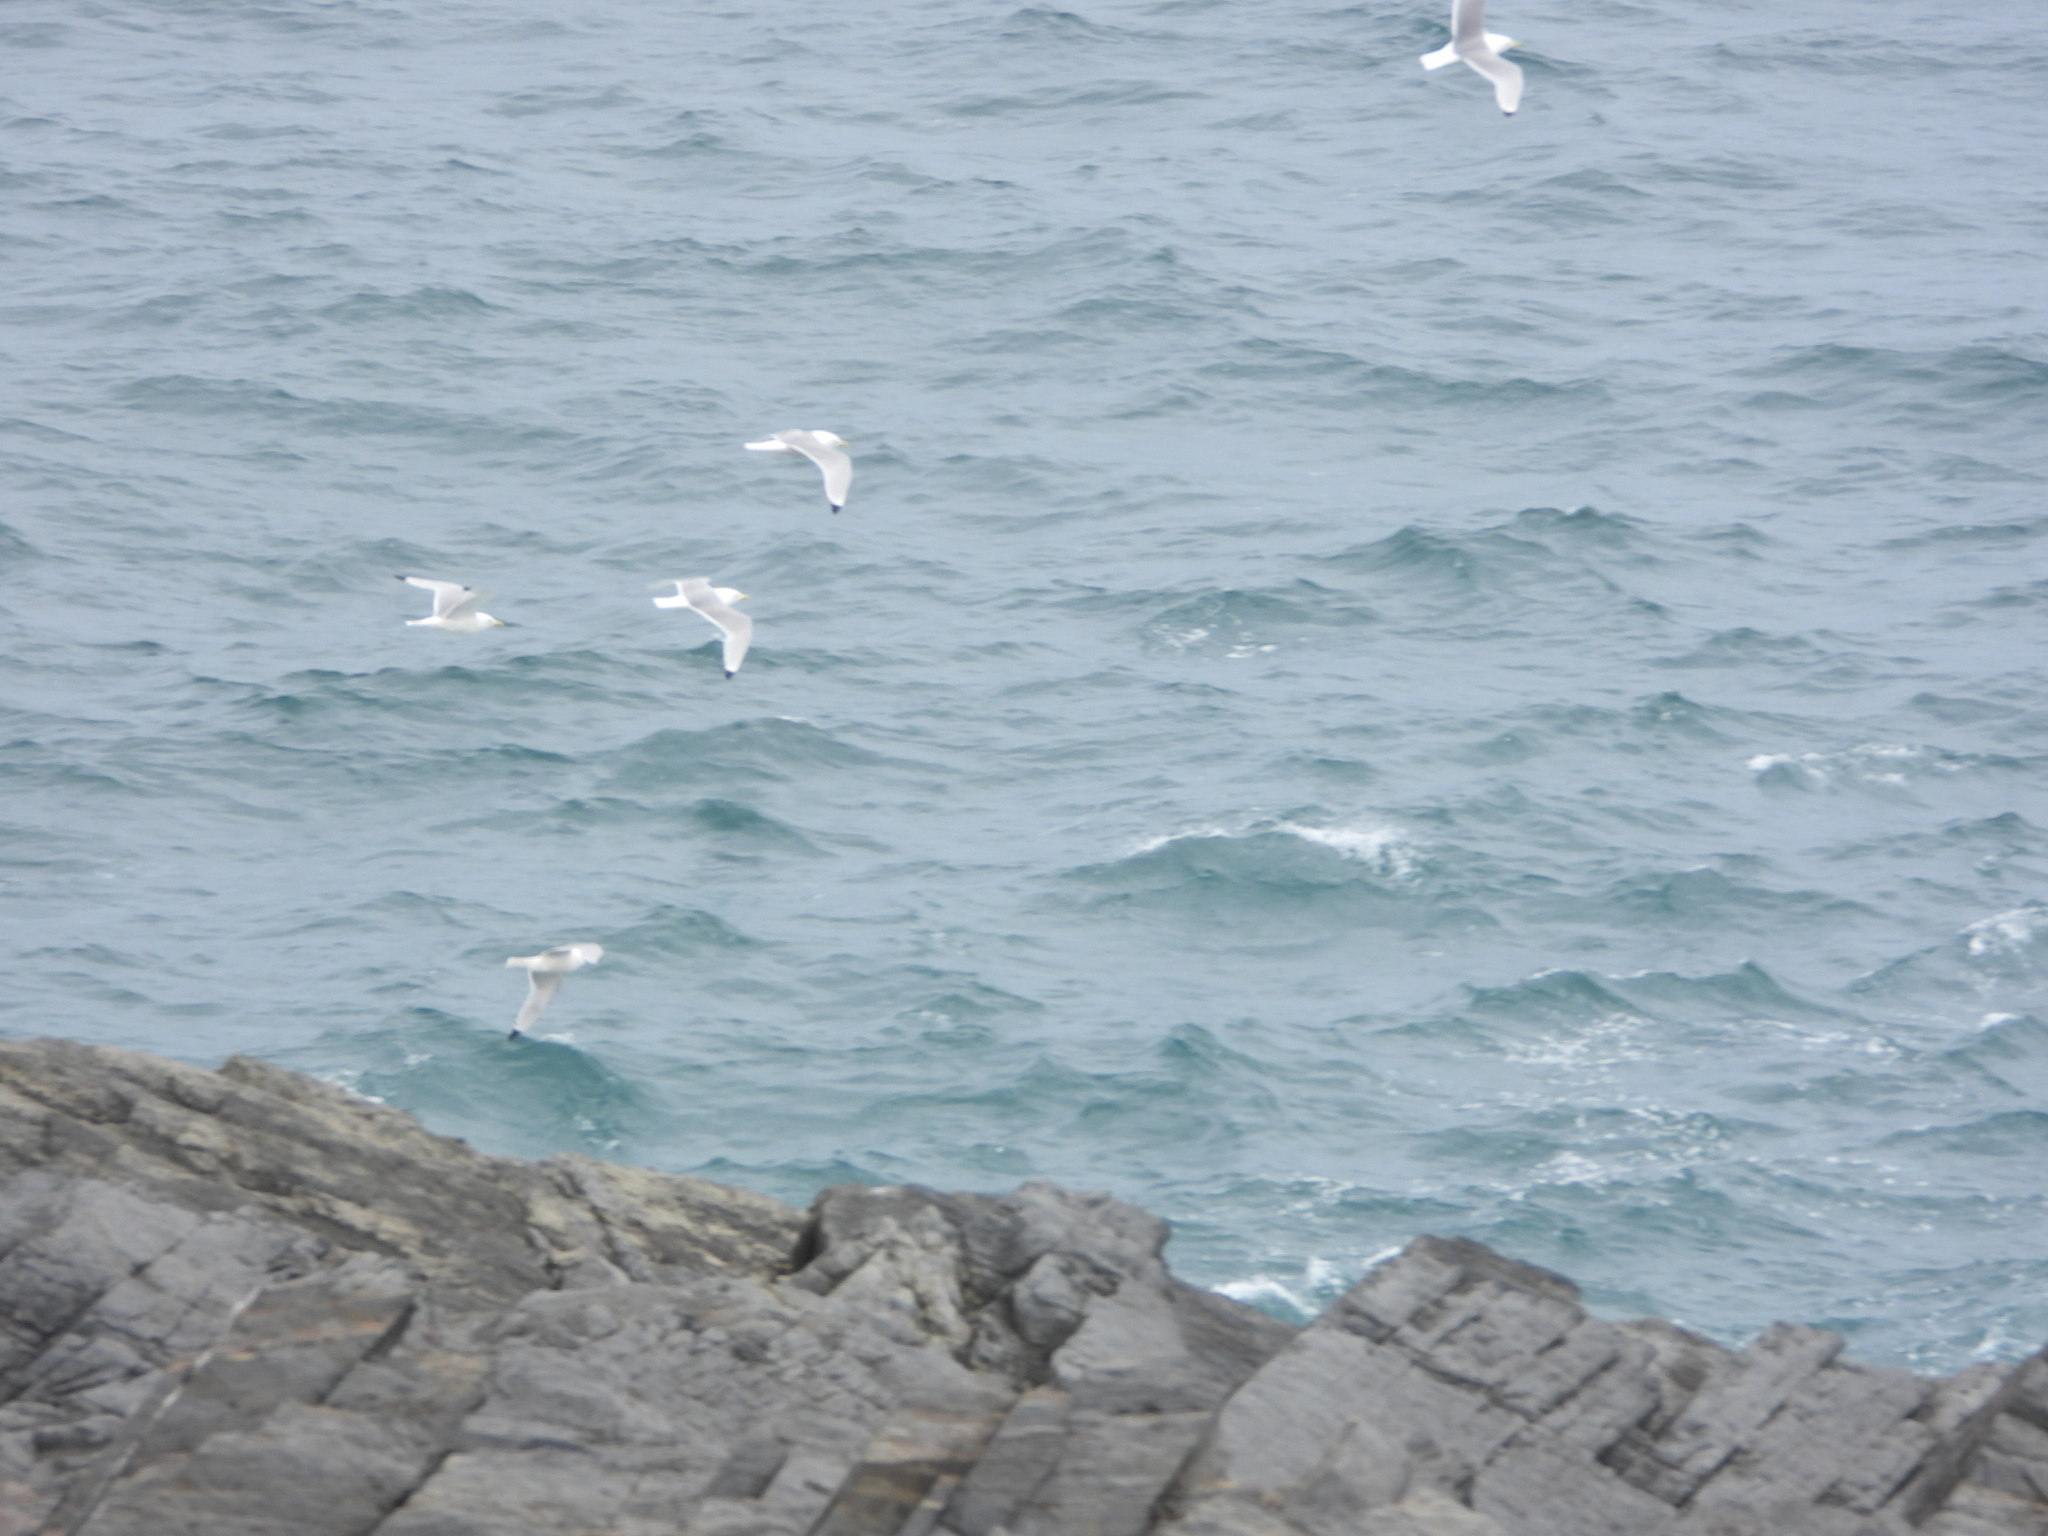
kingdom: Animalia
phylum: Chordata
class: Aves
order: Charadriiformes
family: Laridae
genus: Rissa
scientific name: Rissa tridactyla
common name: Black-legged kittiwake
